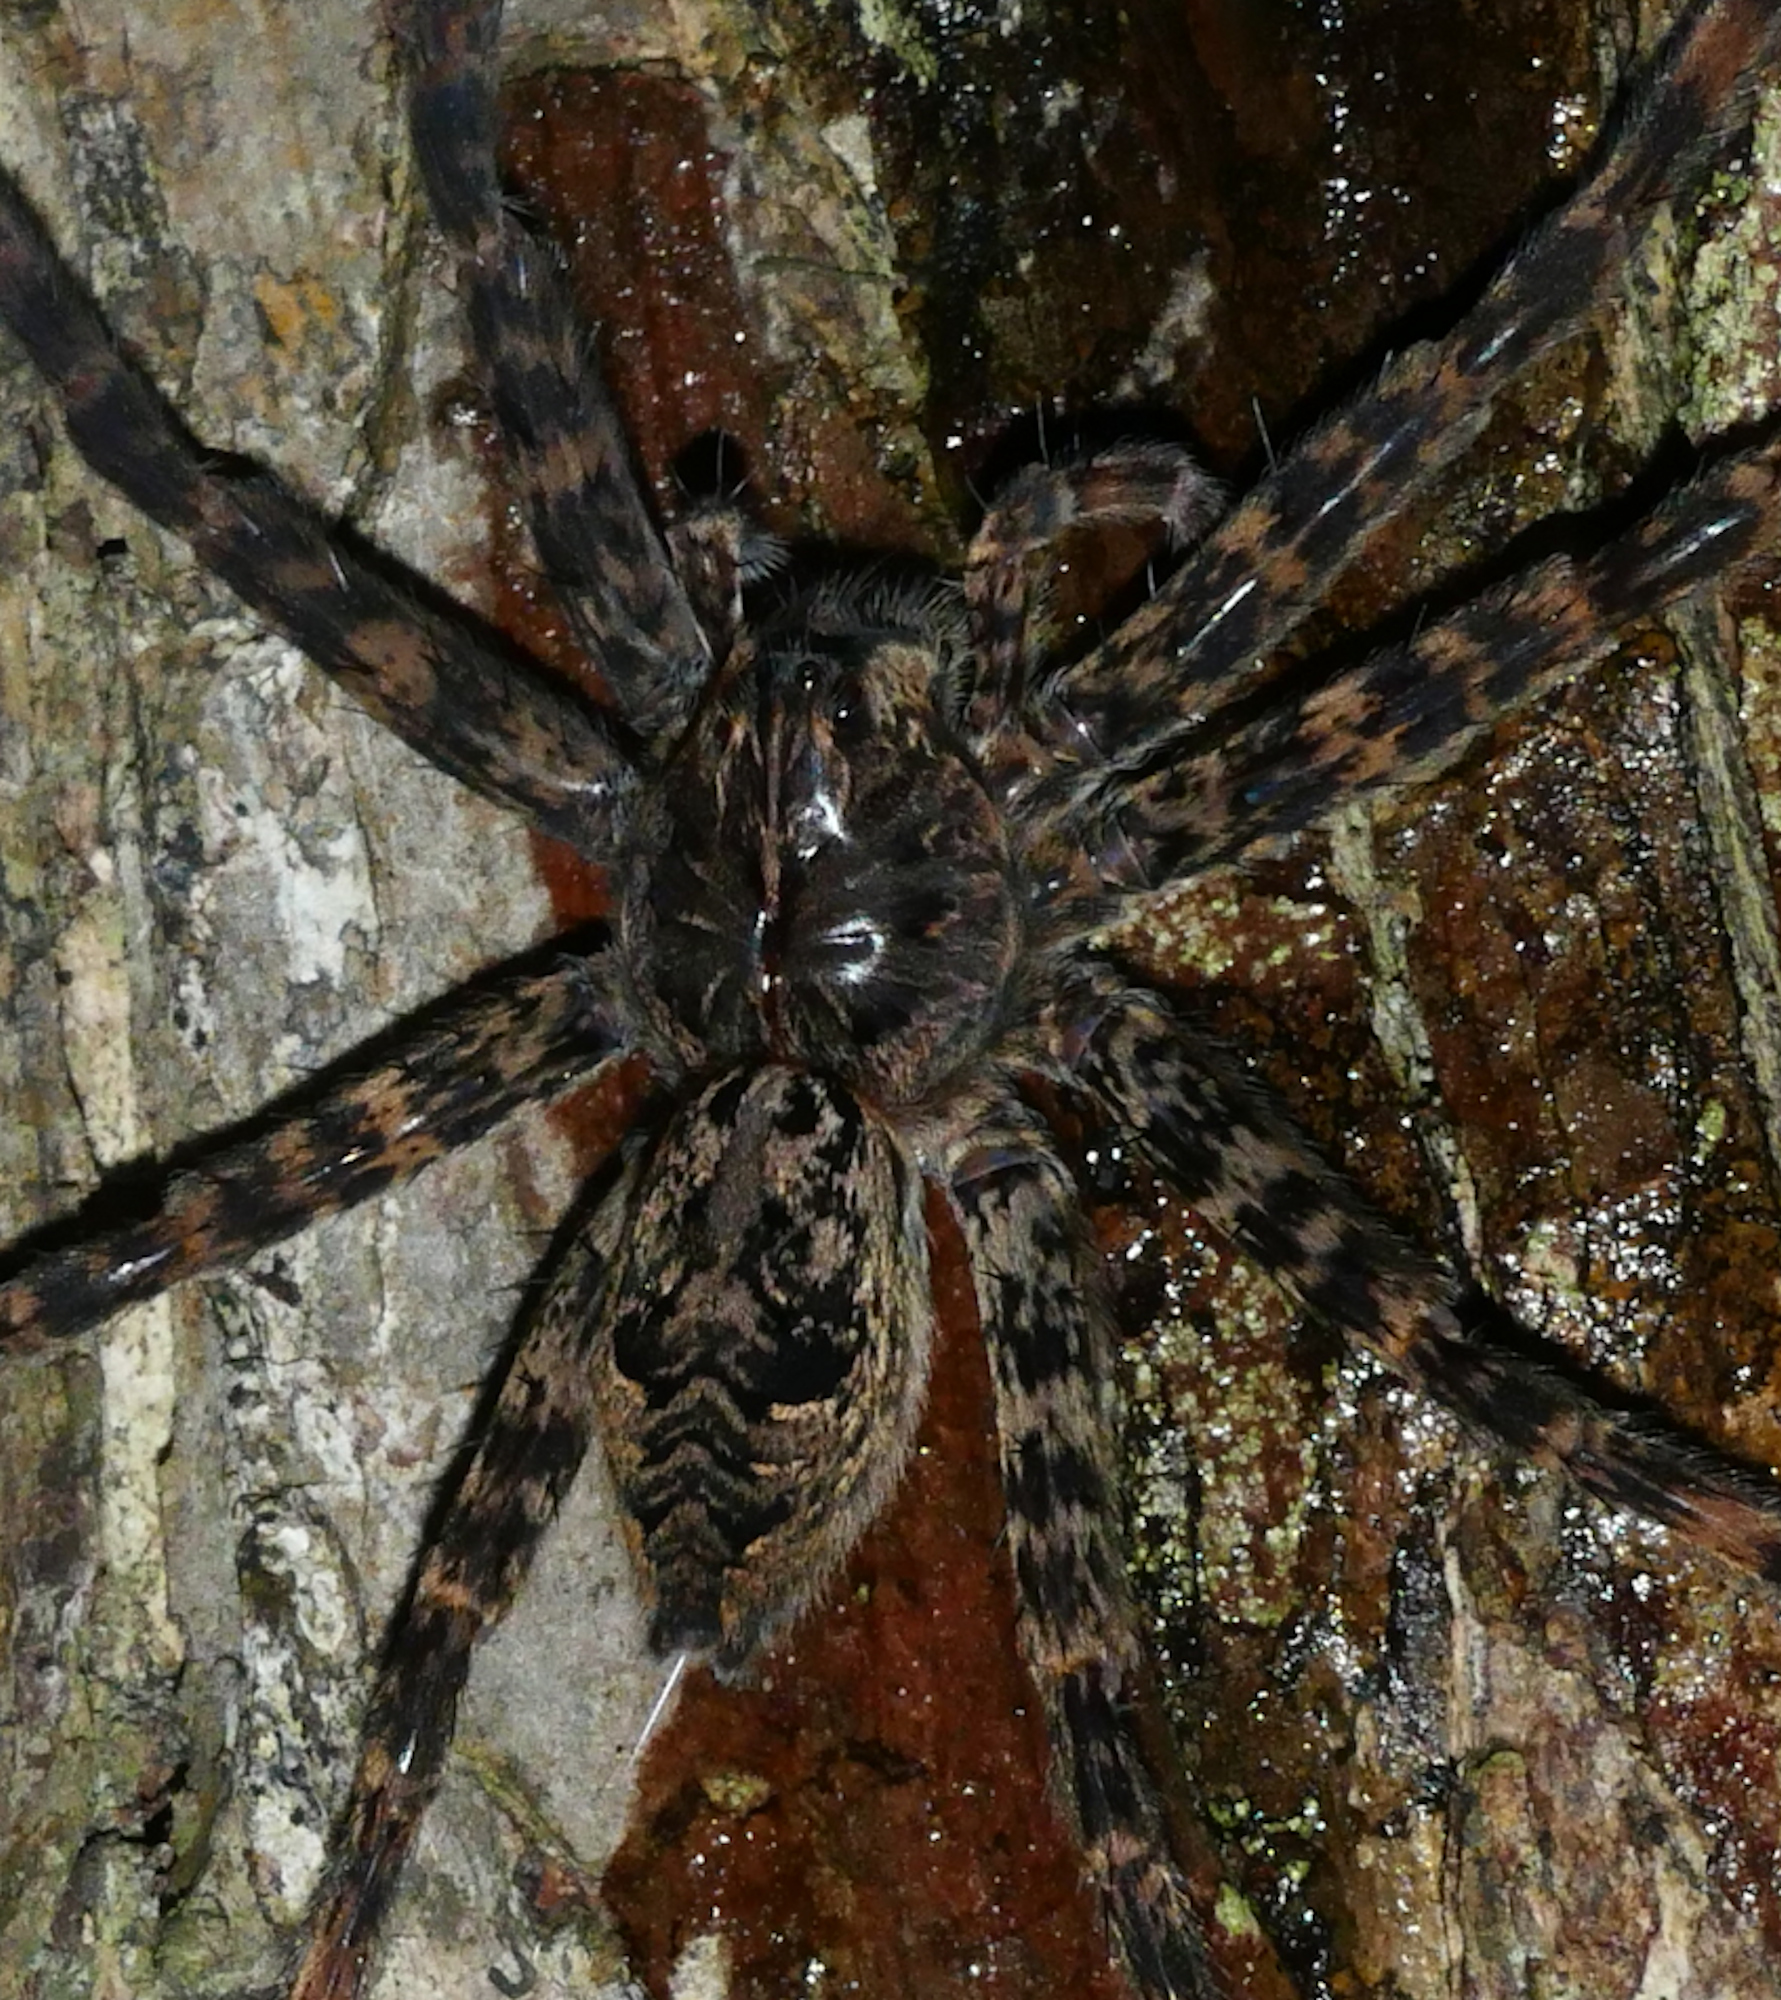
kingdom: Animalia
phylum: Arthropoda
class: Arachnida
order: Araneae
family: Pisauridae
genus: Dolomedes
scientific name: Dolomedes tenebrosus
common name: Dark fishing spider
